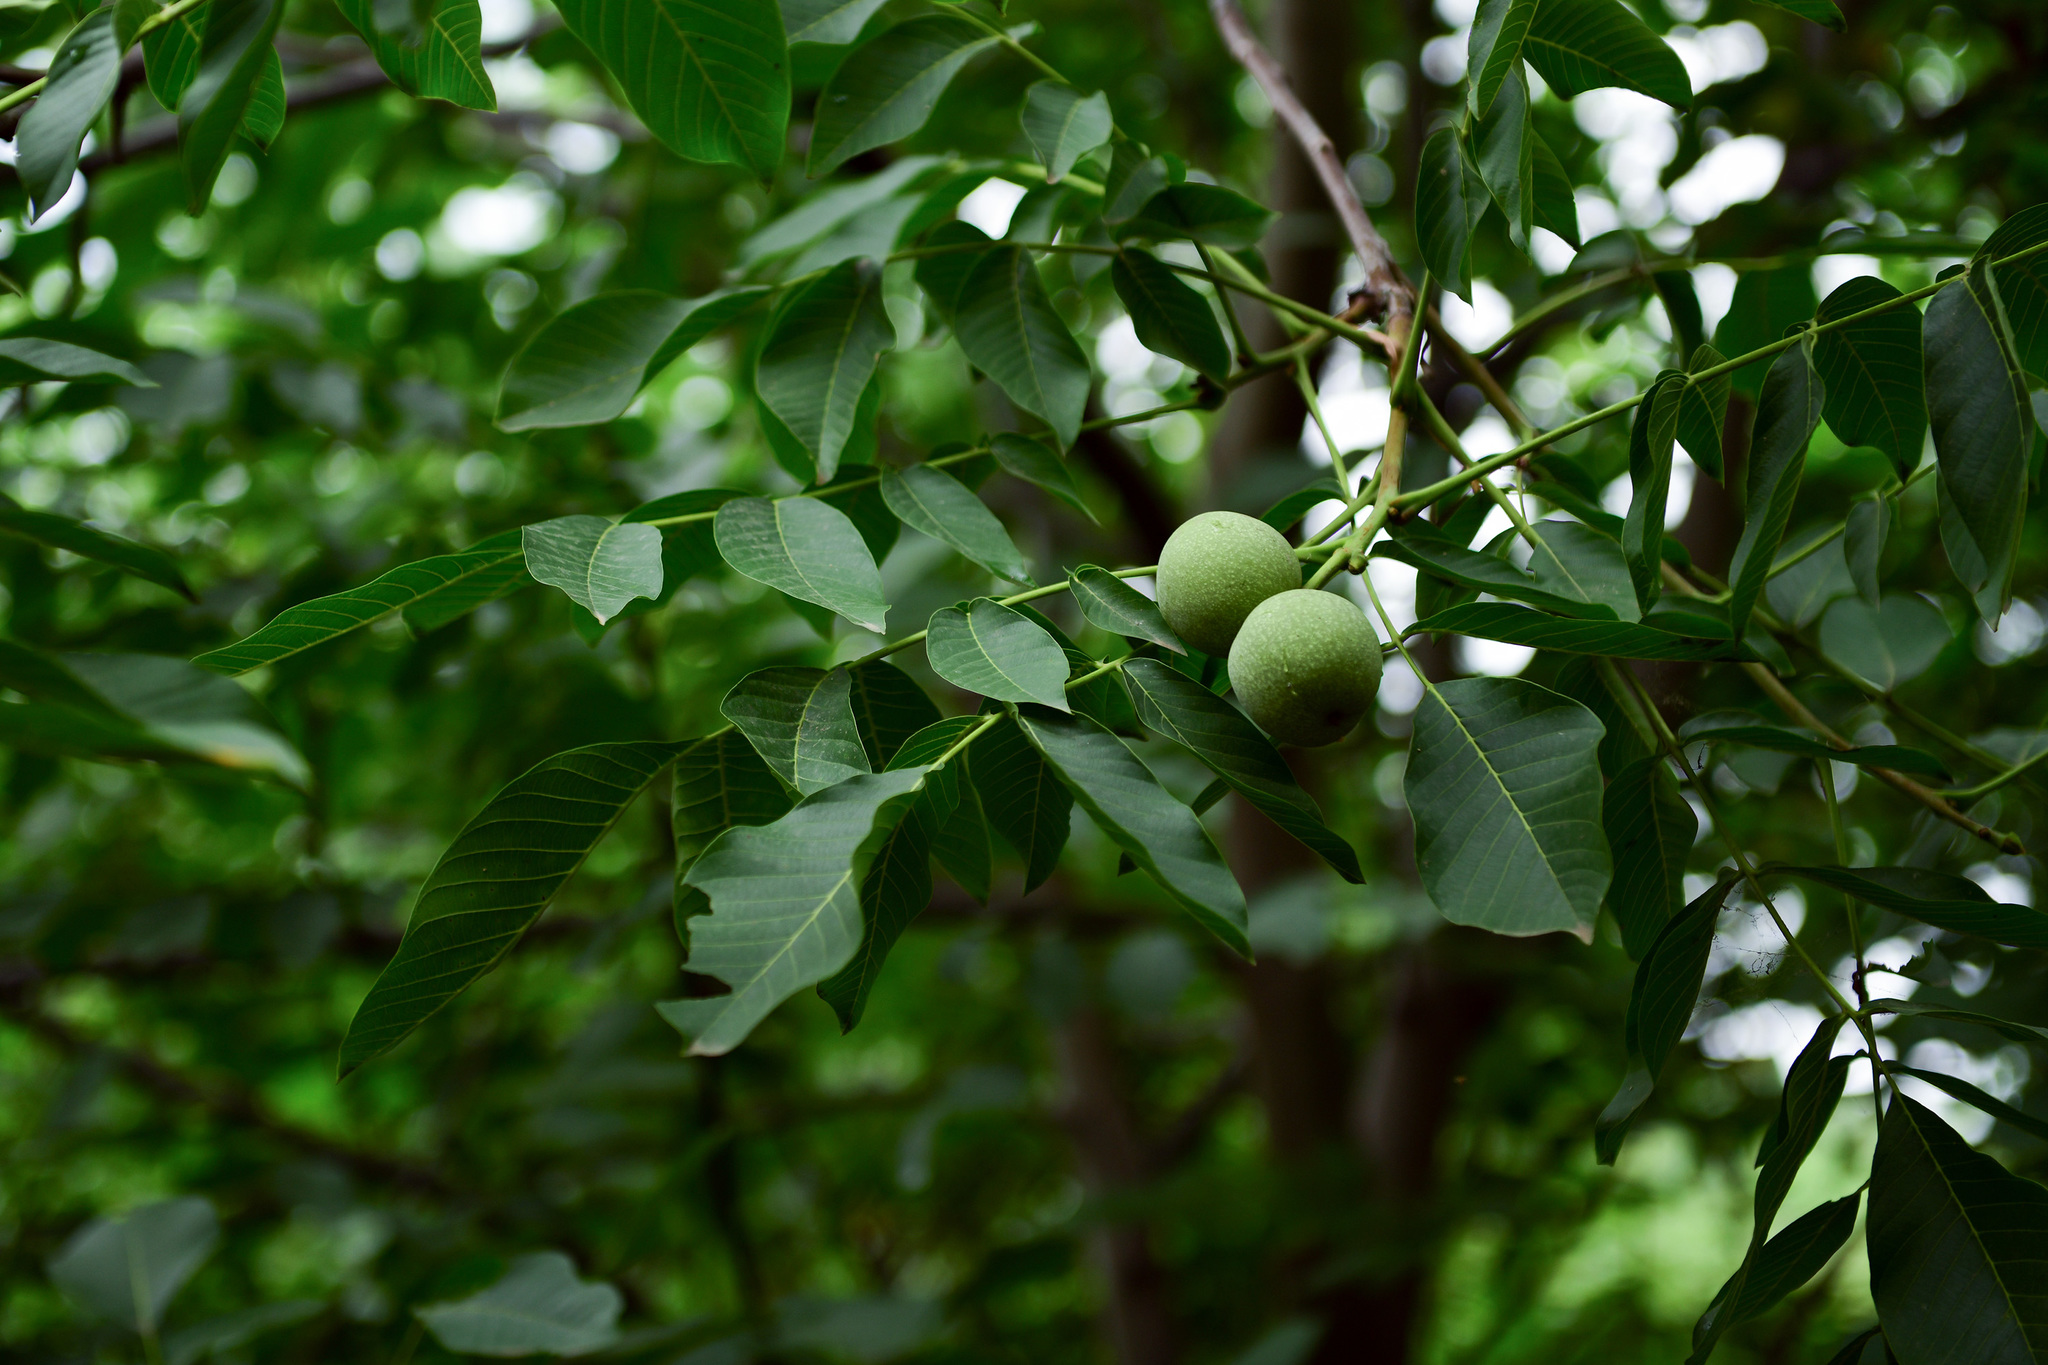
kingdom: Plantae
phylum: Tracheophyta
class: Magnoliopsida
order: Fagales
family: Juglandaceae
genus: Juglans
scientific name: Juglans regia
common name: Walnut
